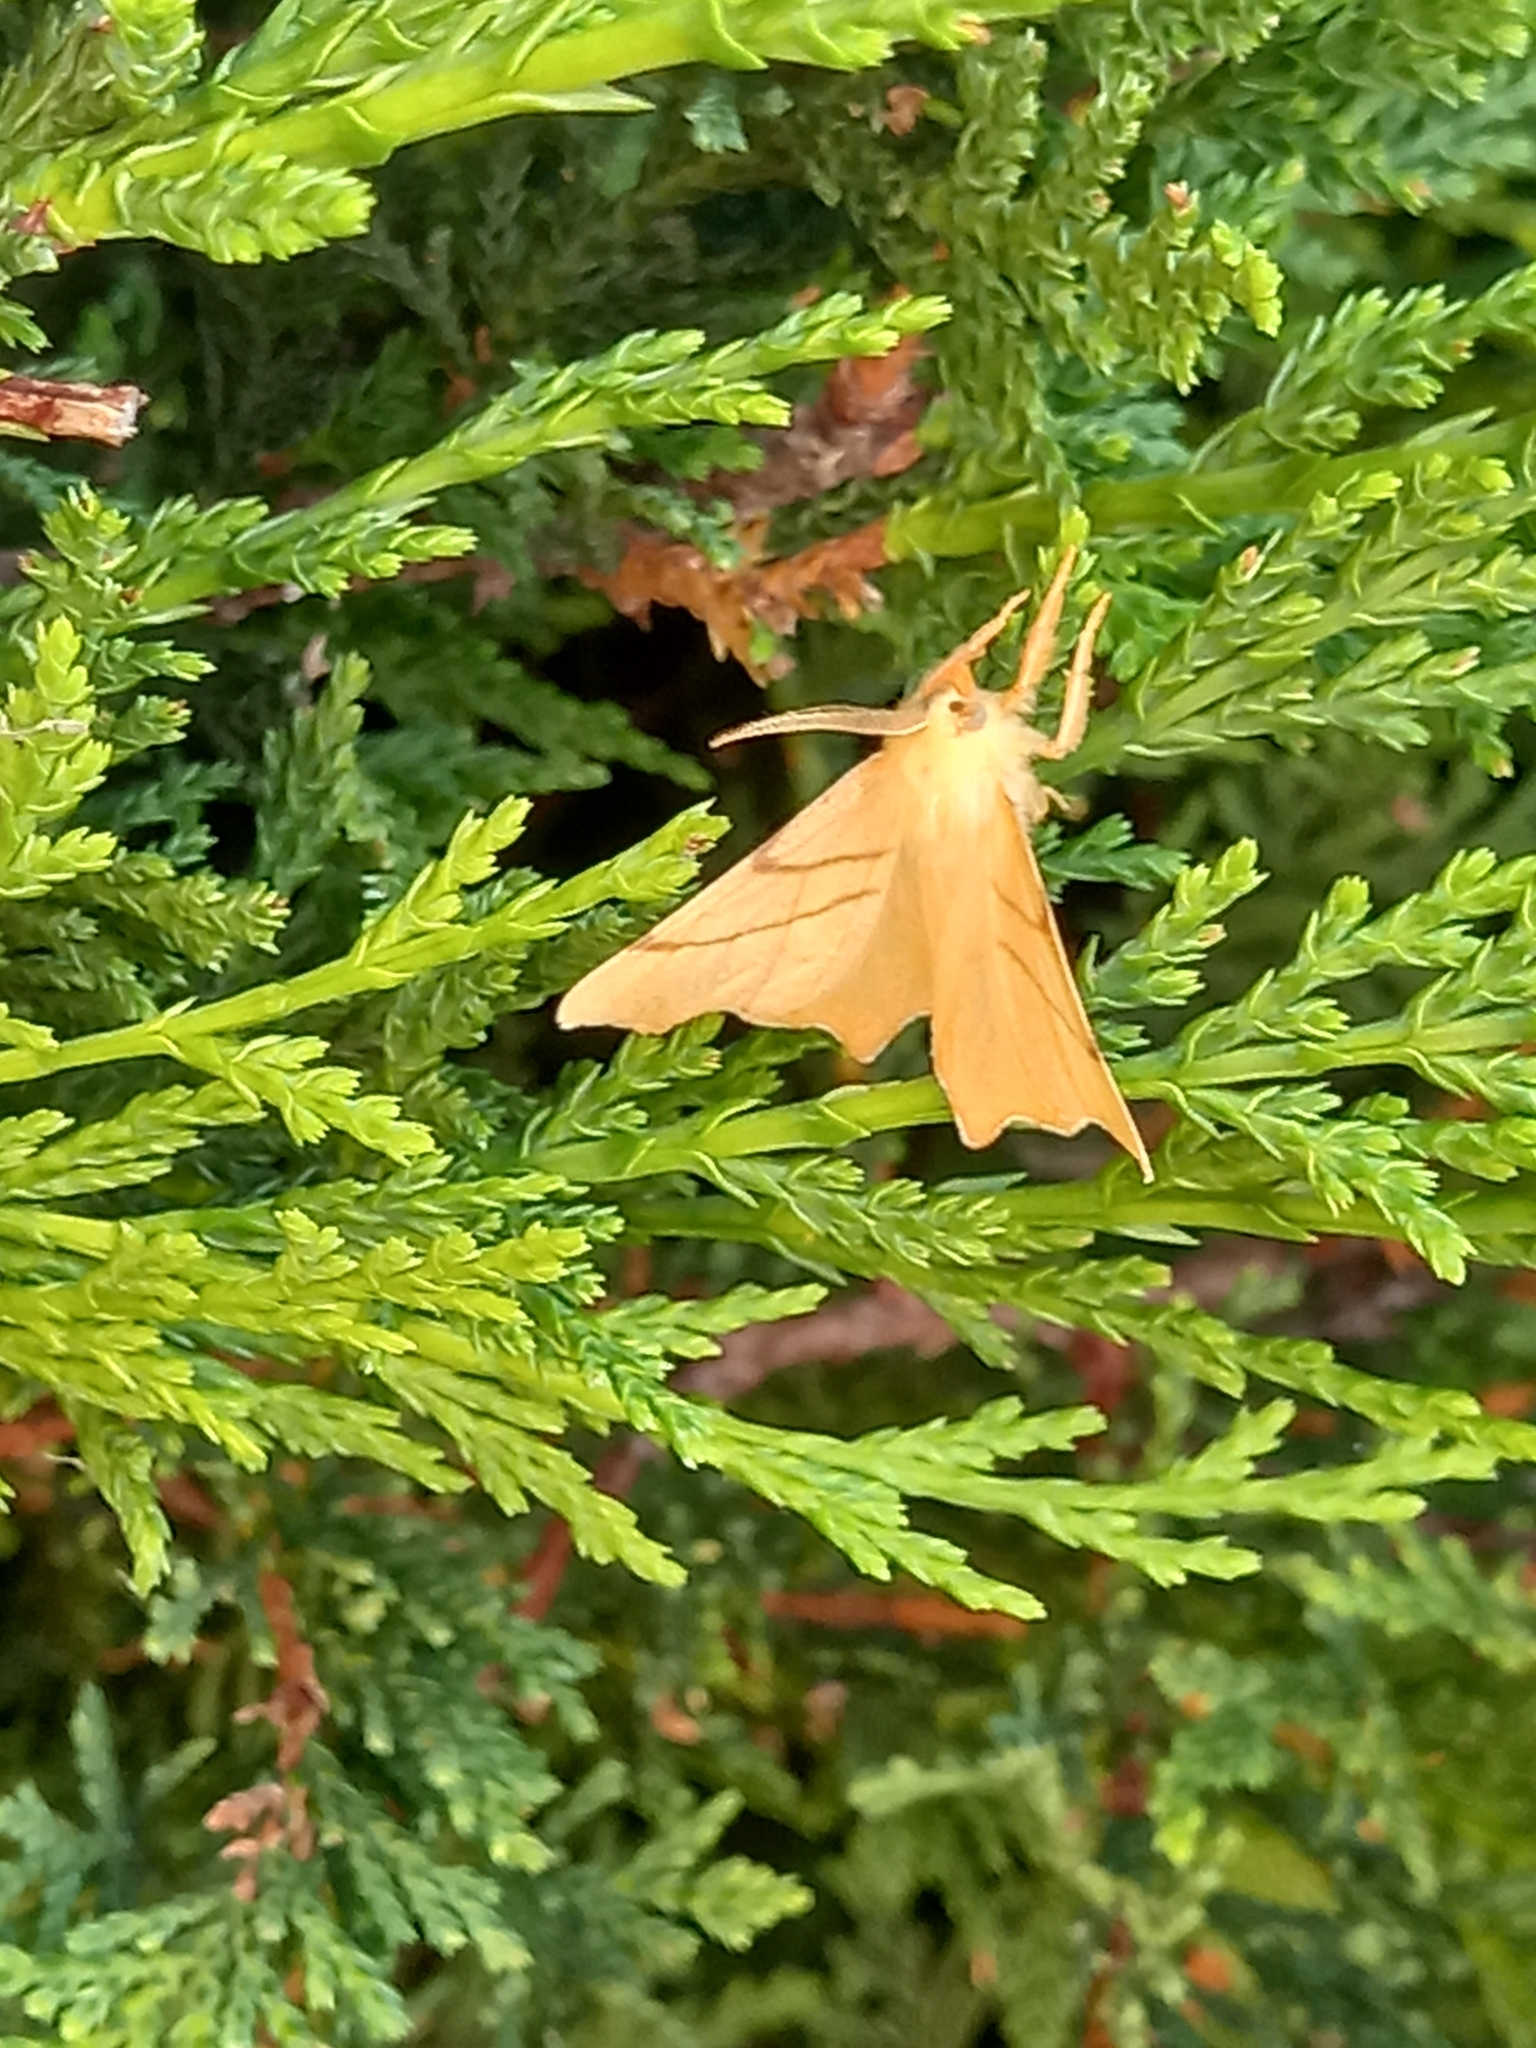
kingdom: Animalia
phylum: Arthropoda
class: Insecta
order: Lepidoptera
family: Geometridae
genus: Ennomos
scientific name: Ennomos erosaria
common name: September thorn
